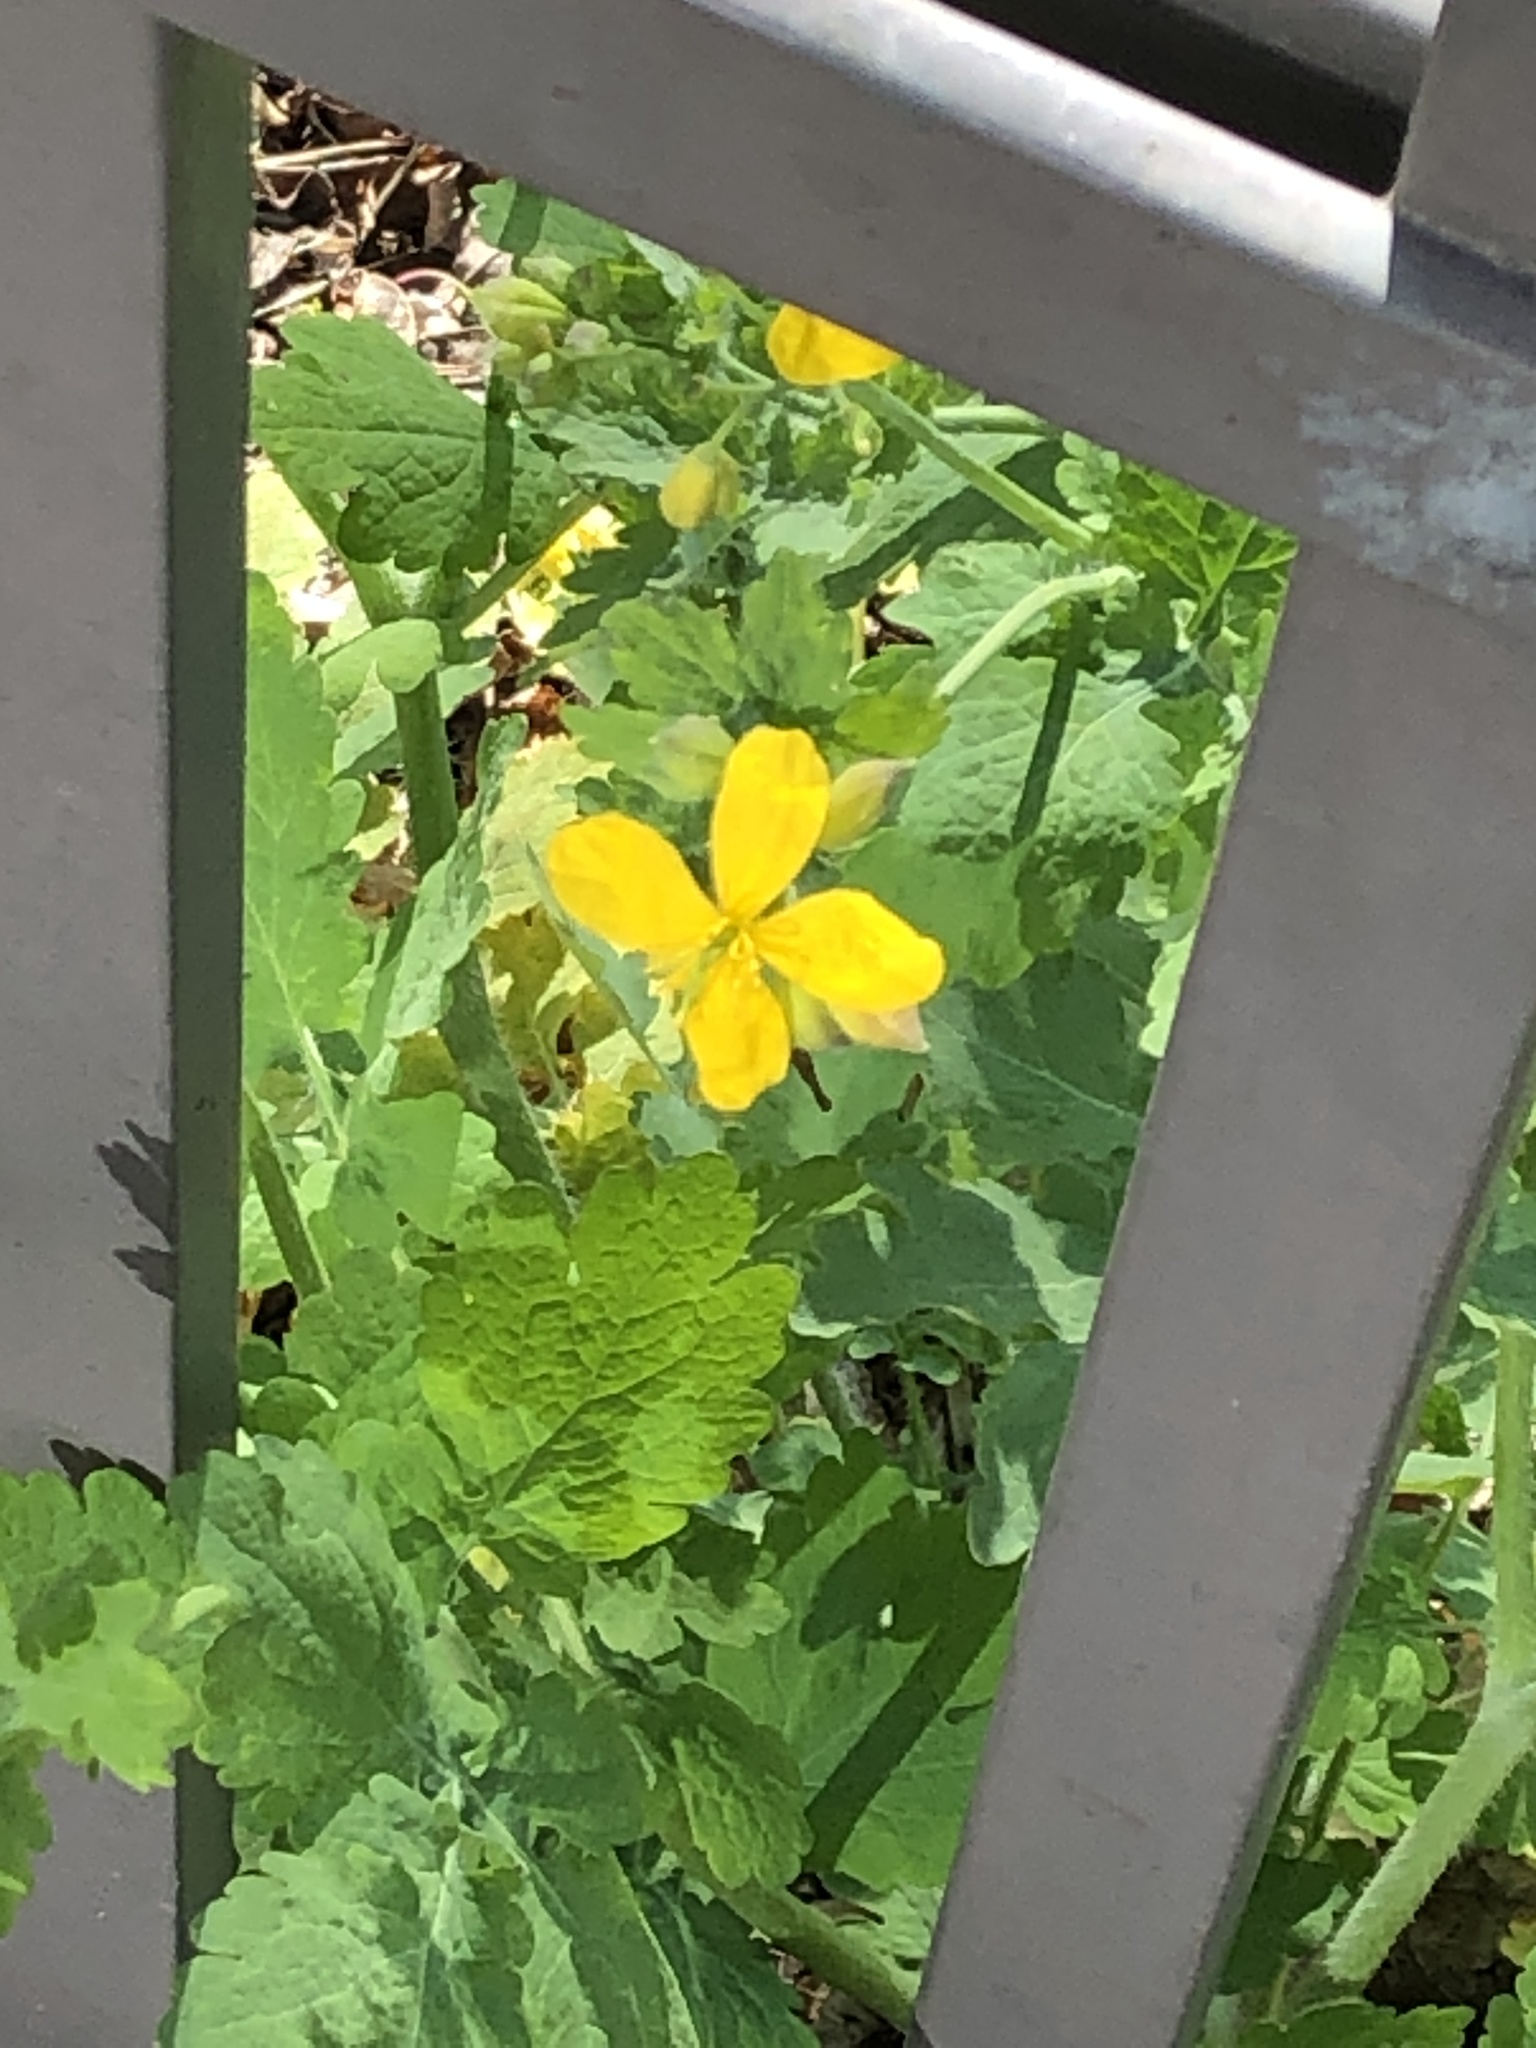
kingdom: Plantae
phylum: Tracheophyta
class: Magnoliopsida
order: Ranunculales
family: Papaveraceae
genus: Chelidonium
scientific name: Chelidonium majus
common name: Greater celandine
